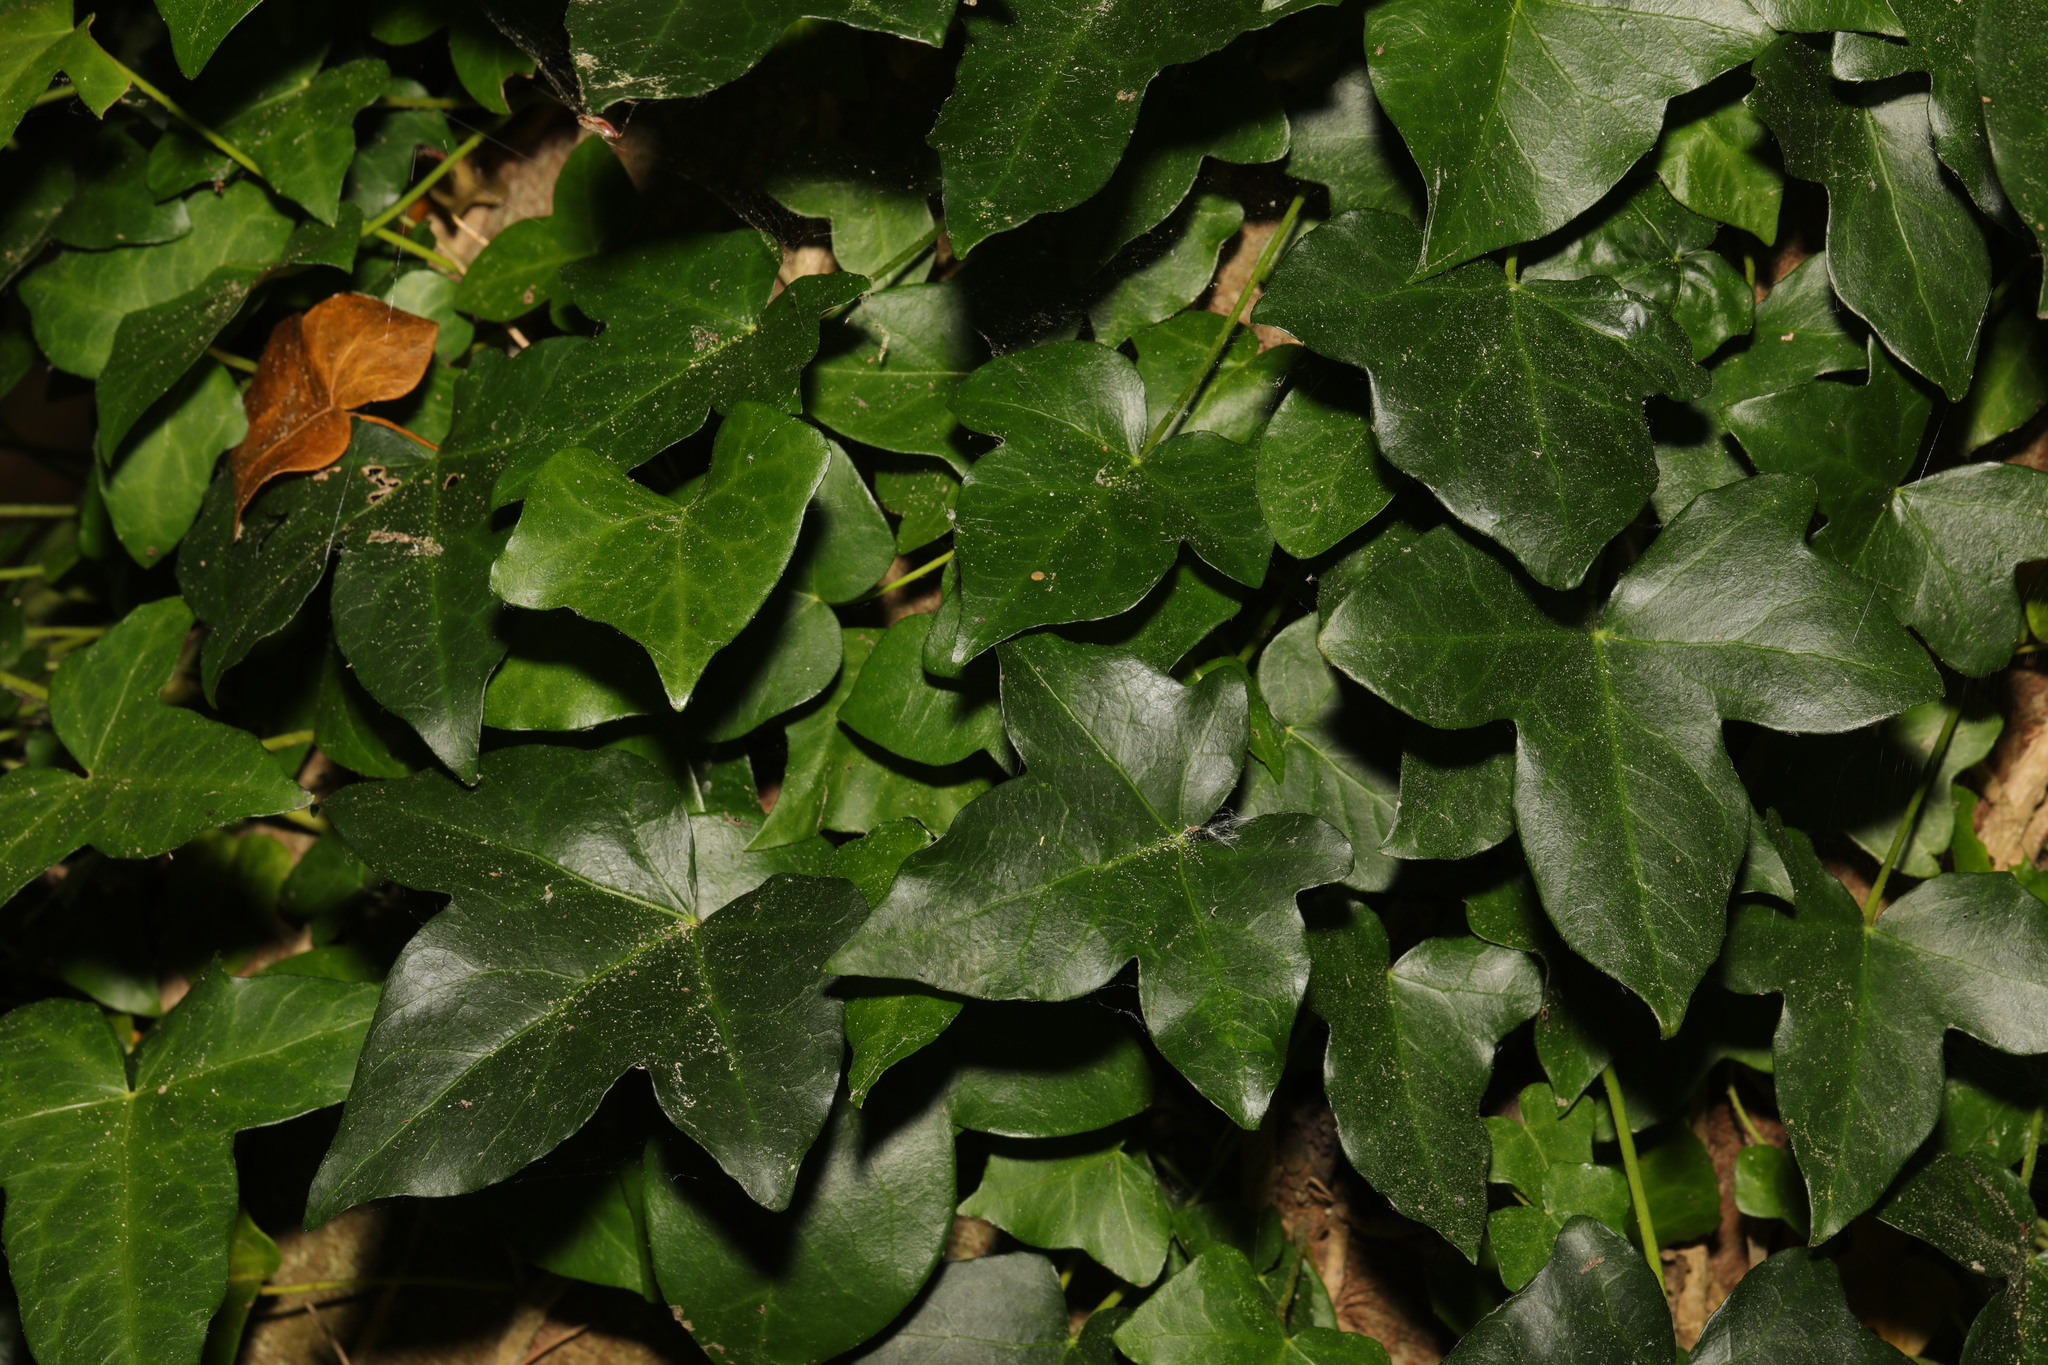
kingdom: Plantae
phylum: Tracheophyta
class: Magnoliopsida
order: Apiales
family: Araliaceae
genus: Hedera
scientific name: Hedera helix
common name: Ivy
